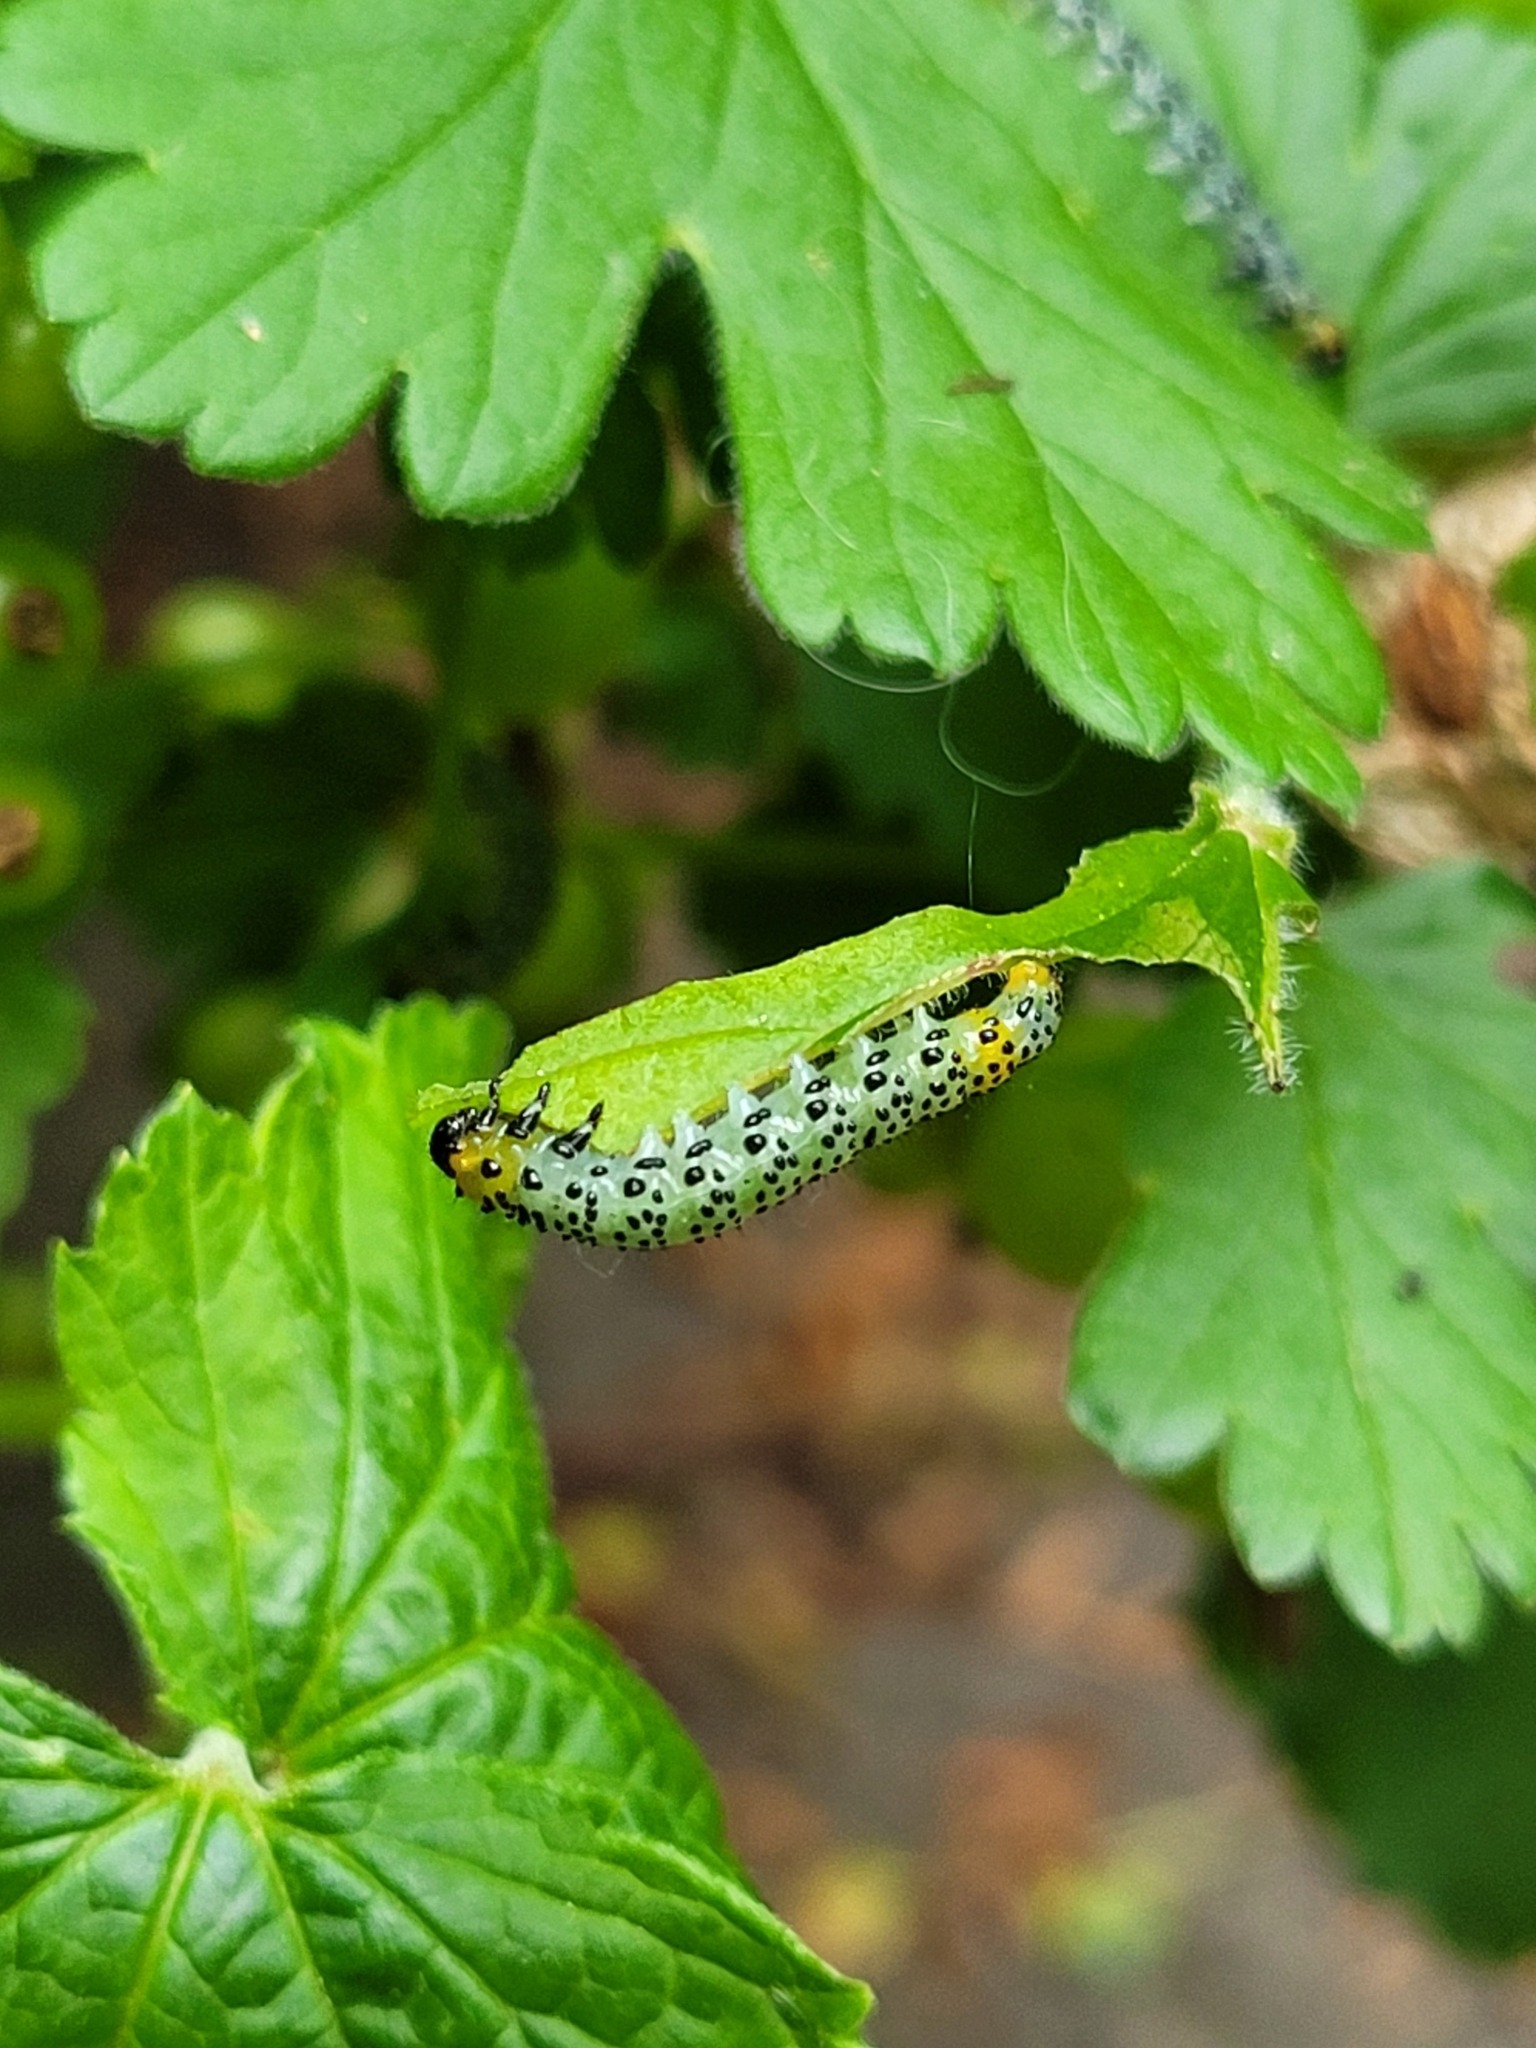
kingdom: Animalia
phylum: Arthropoda
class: Insecta
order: Hymenoptera
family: Tenthredinidae
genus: Nematus
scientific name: Nematus ribesii
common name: Imported currantworm
